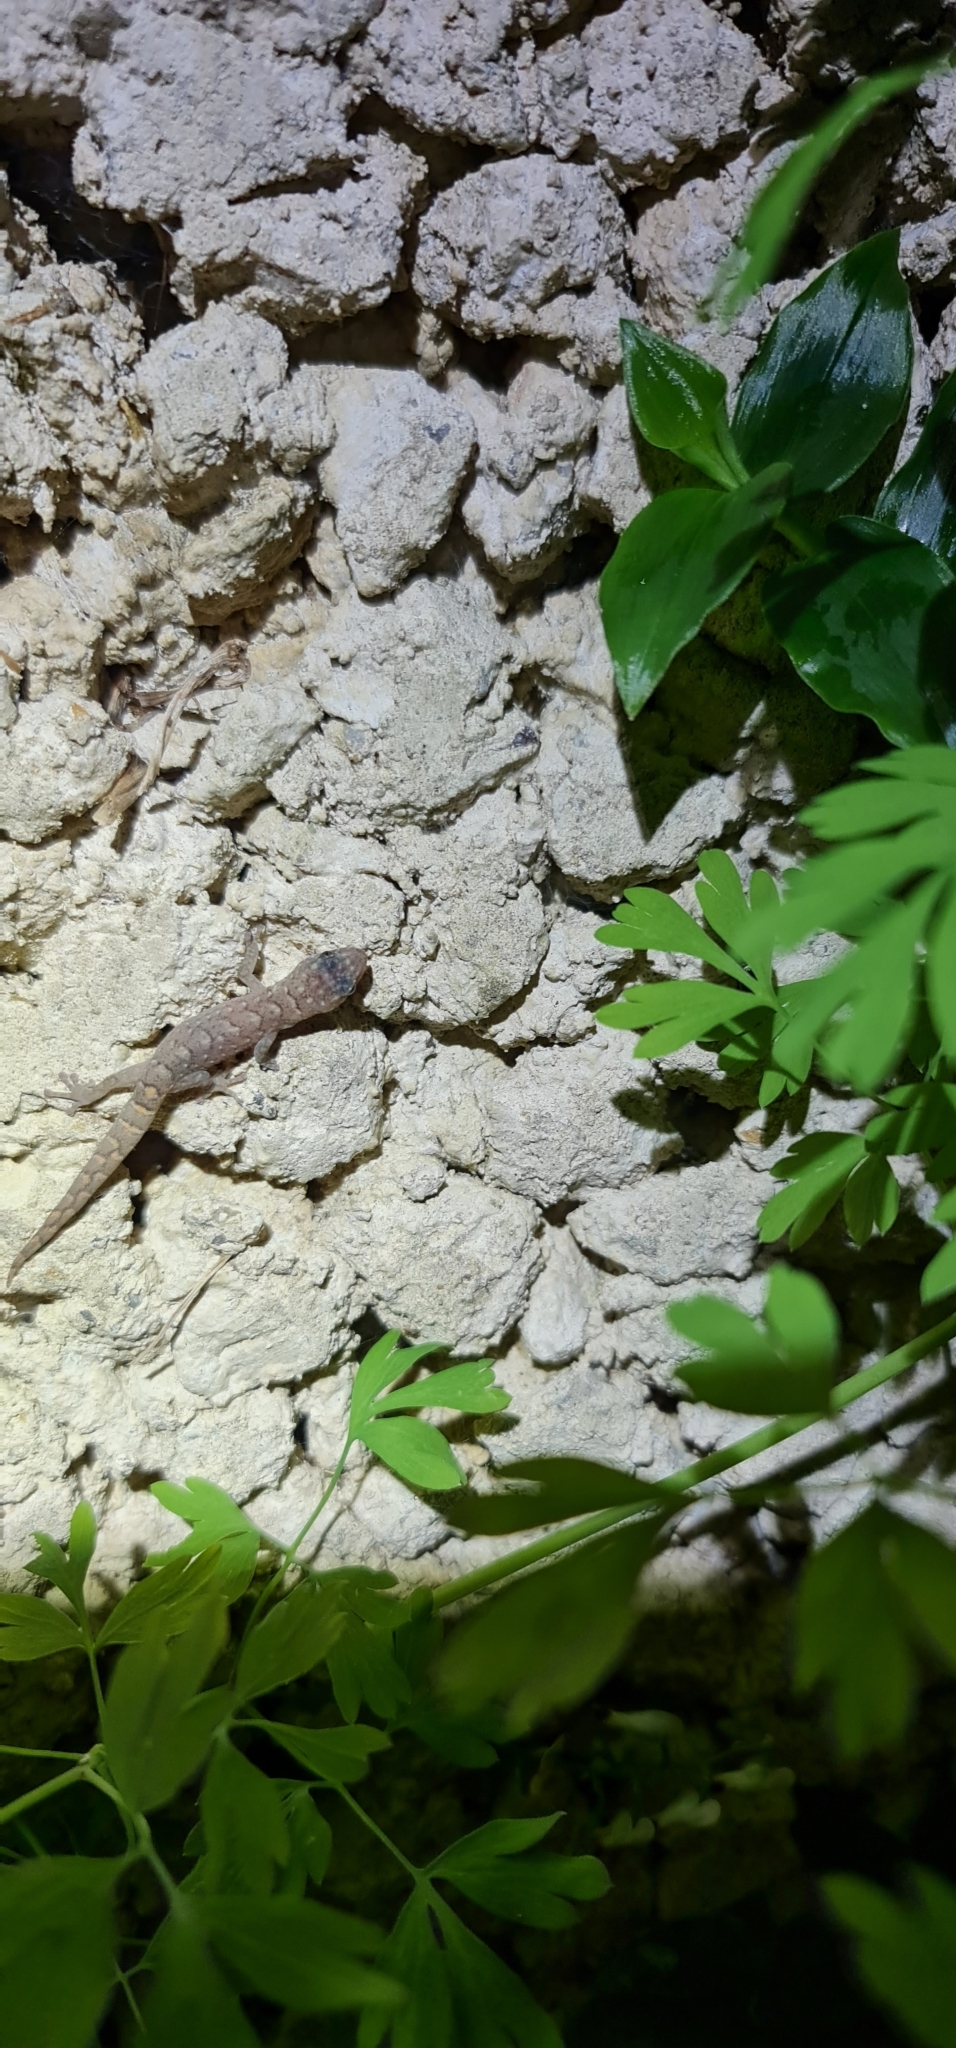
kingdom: Animalia
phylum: Chordata
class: Squamata
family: Gekkonidae
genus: Christinus
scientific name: Christinus marmoratus
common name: Marbled gecko
